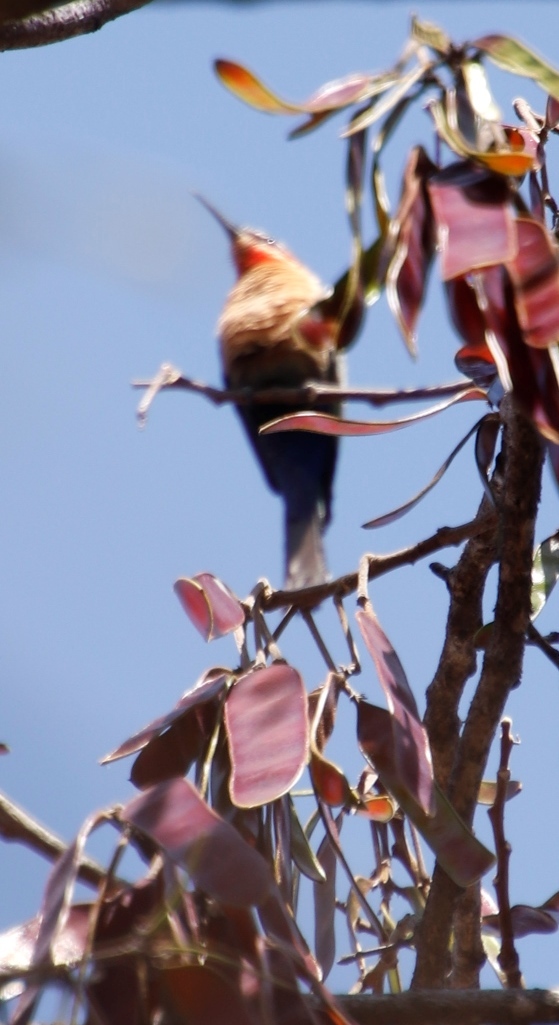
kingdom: Animalia
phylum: Chordata
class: Aves
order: Coraciiformes
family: Meropidae
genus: Merops
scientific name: Merops bullockoides
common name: White-fronted bee-eater
